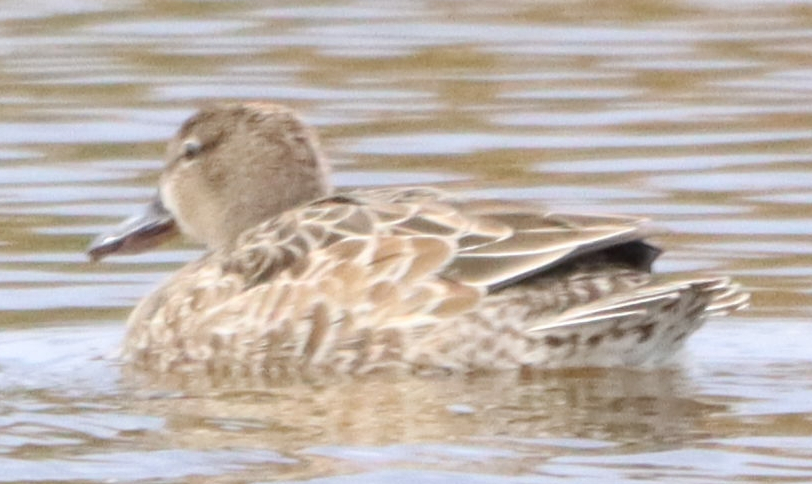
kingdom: Animalia
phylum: Chordata
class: Aves
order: Anseriformes
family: Anatidae
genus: Spatula
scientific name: Spatula discors
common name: Blue-winged teal
